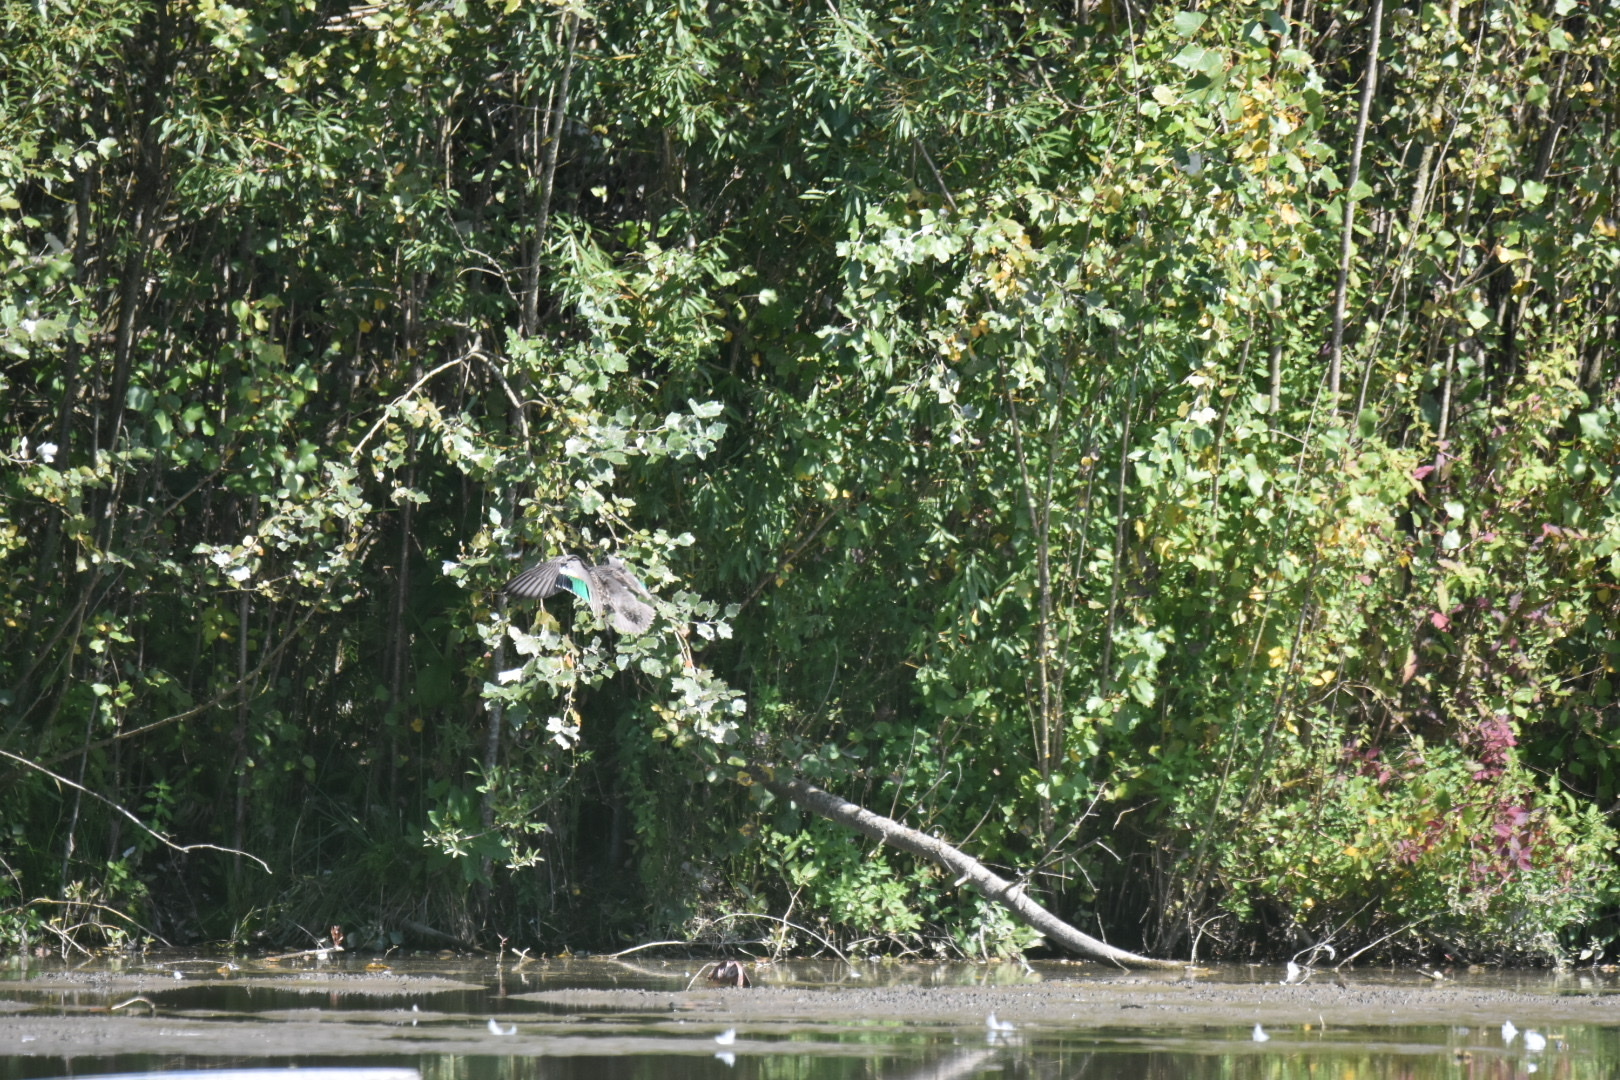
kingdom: Animalia
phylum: Chordata
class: Aves
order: Anseriformes
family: Anatidae
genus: Anas
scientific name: Anas crecca
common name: Eurasian teal
